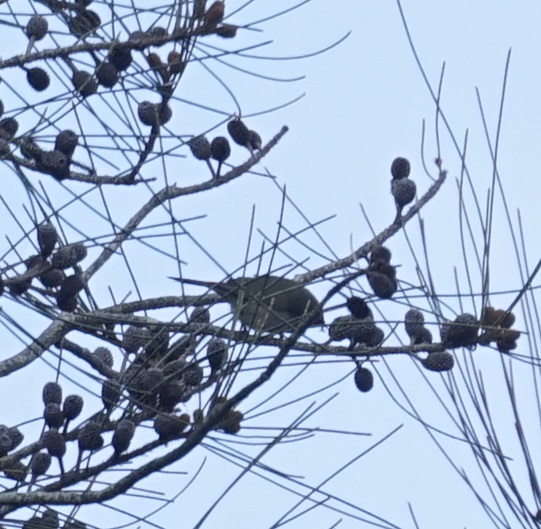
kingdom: Animalia
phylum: Chordata
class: Aves
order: Passeriformes
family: Estrildidae
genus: Neochmia
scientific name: Neochmia temporalis
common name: Red-browed finch
